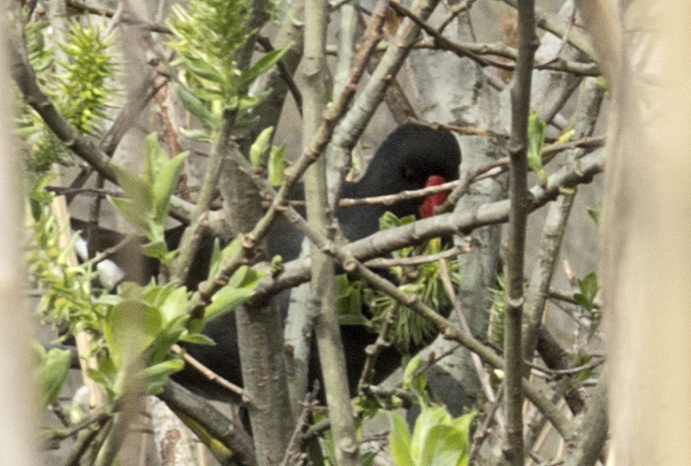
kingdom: Animalia
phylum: Chordata
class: Aves
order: Gruiformes
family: Rallidae
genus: Gallinula
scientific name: Gallinula chloropus
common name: Common moorhen
